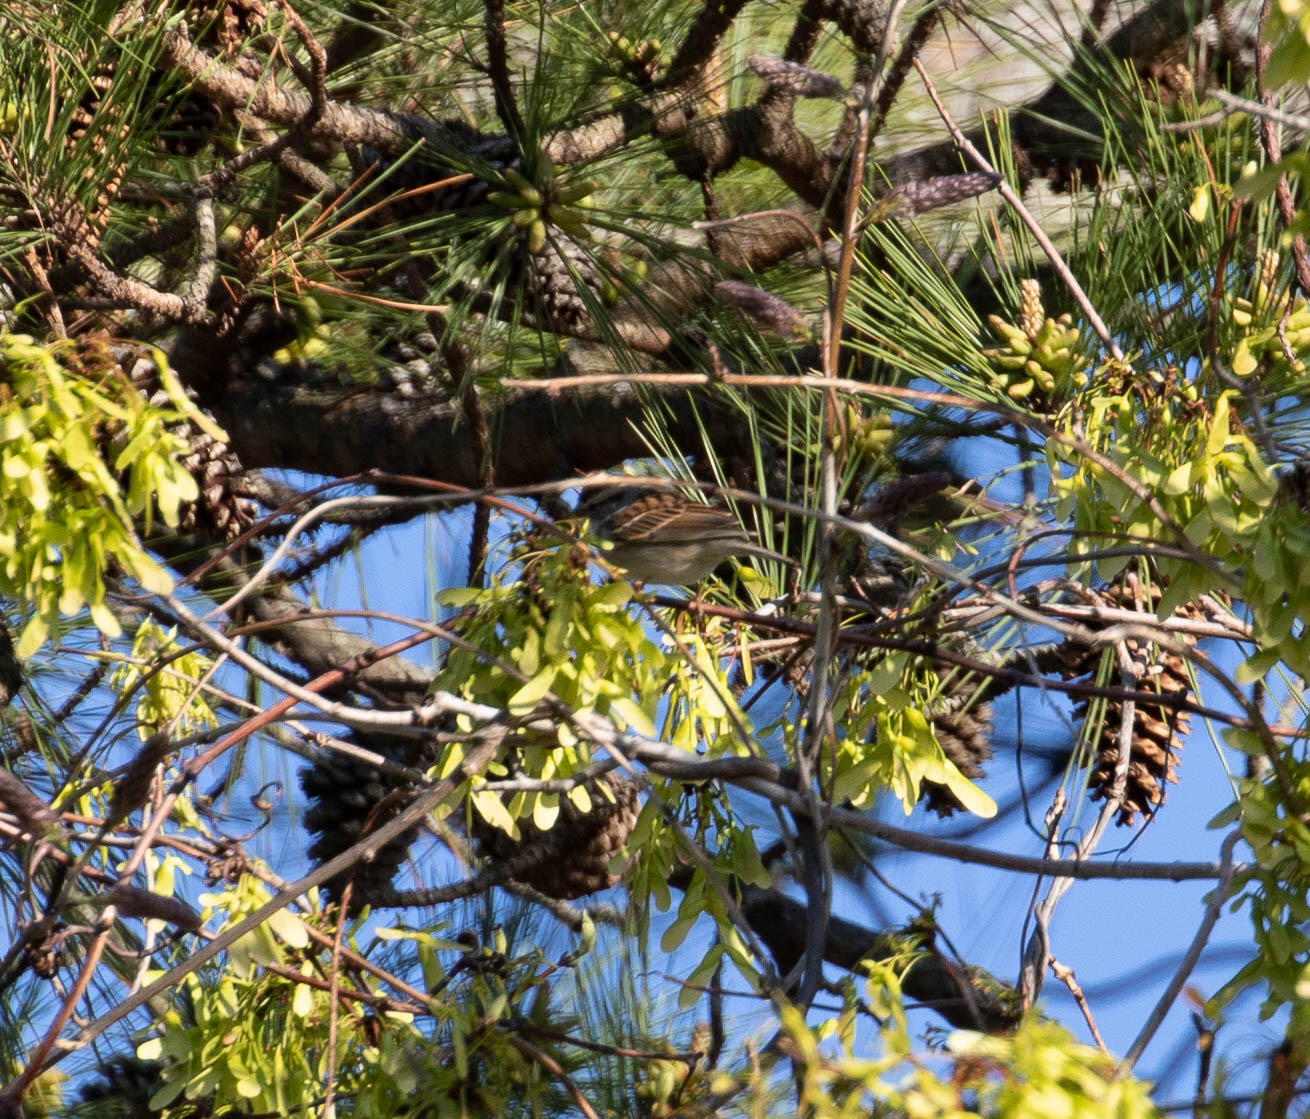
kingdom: Animalia
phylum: Chordata
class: Aves
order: Passeriformes
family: Passerellidae
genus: Spizella
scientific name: Spizella passerina
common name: Chipping sparrow
